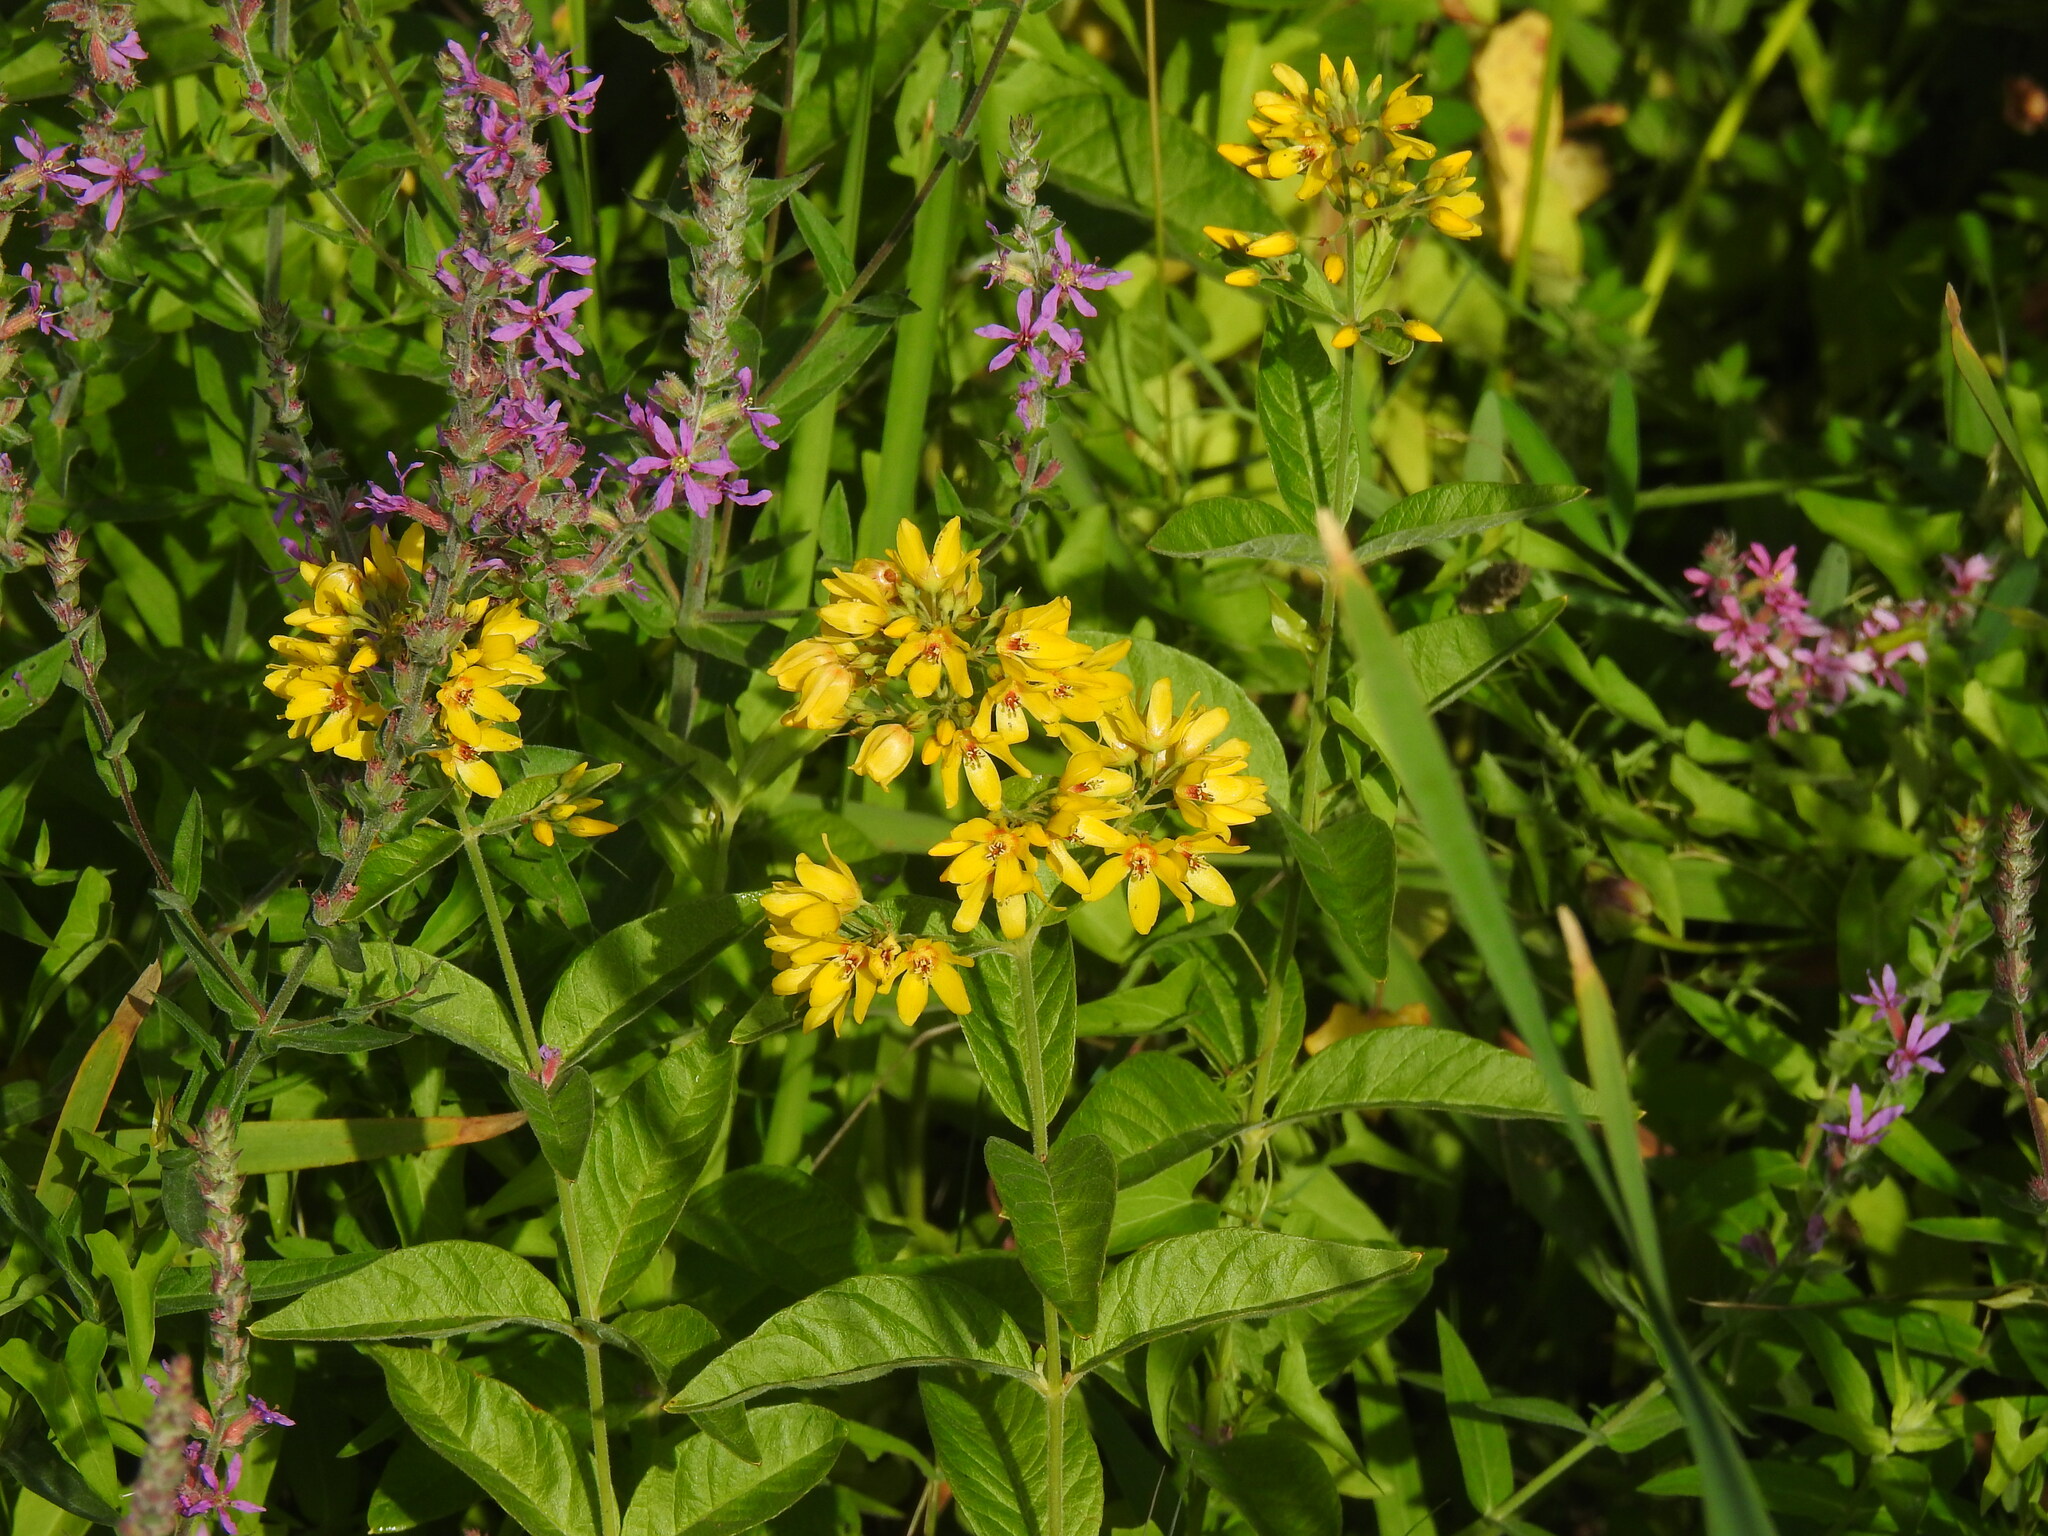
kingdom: Plantae
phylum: Tracheophyta
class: Magnoliopsida
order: Ericales
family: Primulaceae
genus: Lysimachia
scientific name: Lysimachia vulgaris
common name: Yellow loosestrife
